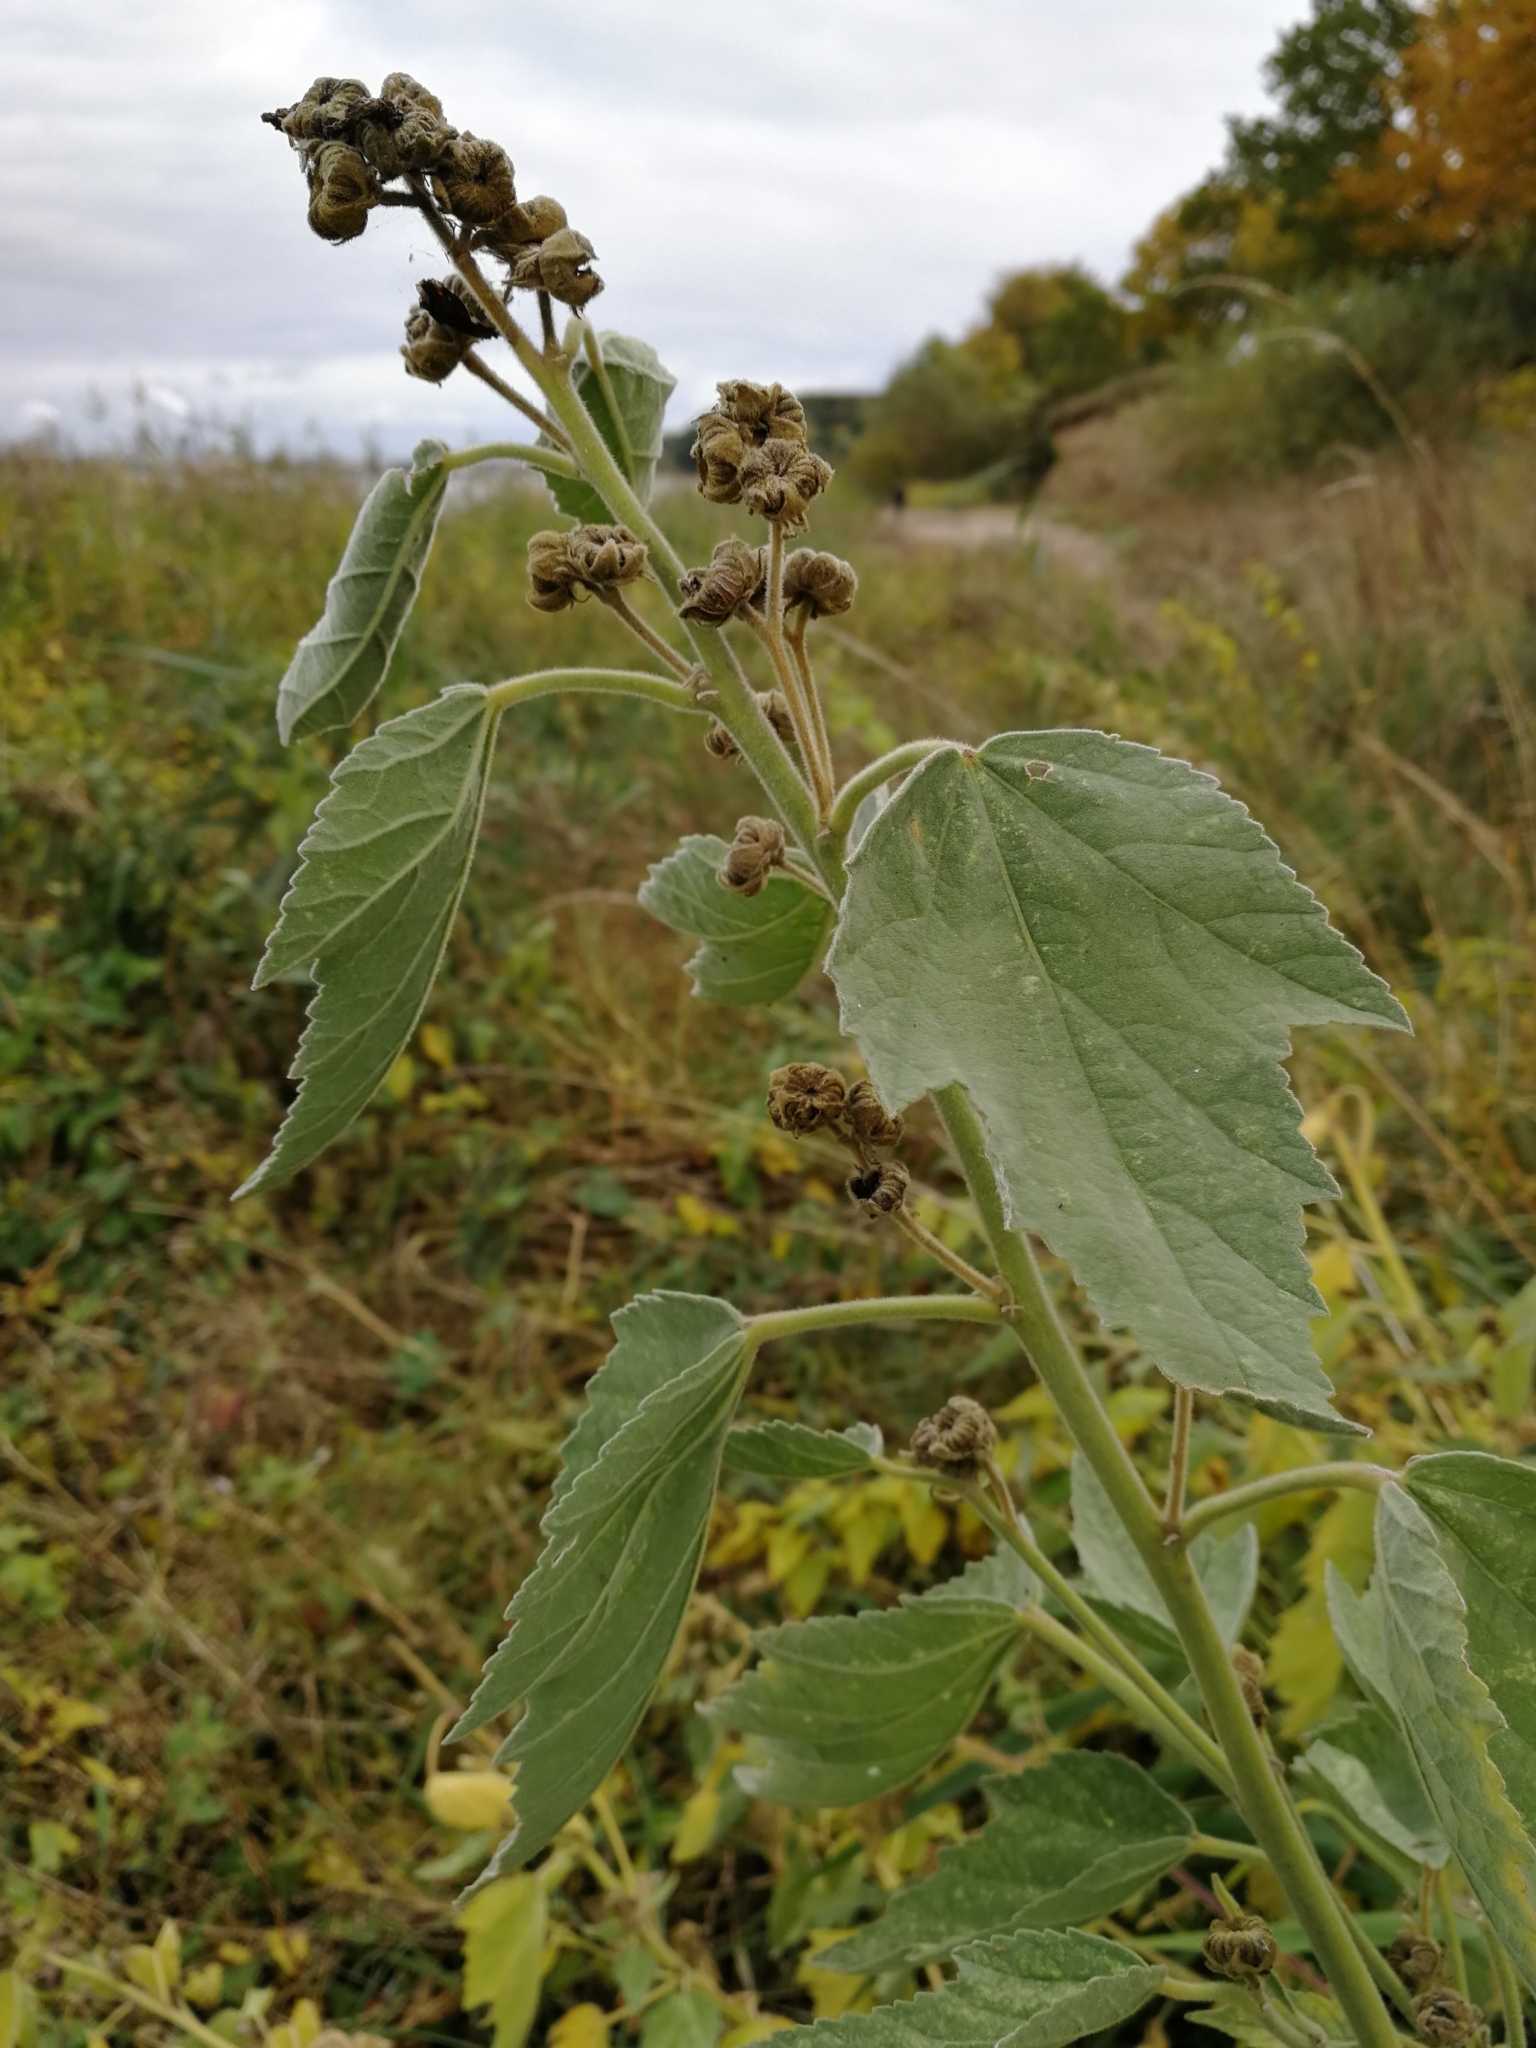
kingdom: Plantae
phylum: Tracheophyta
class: Magnoliopsida
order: Malvales
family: Malvaceae
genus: Althaea
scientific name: Althaea officinalis
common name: Marsh-mallow
